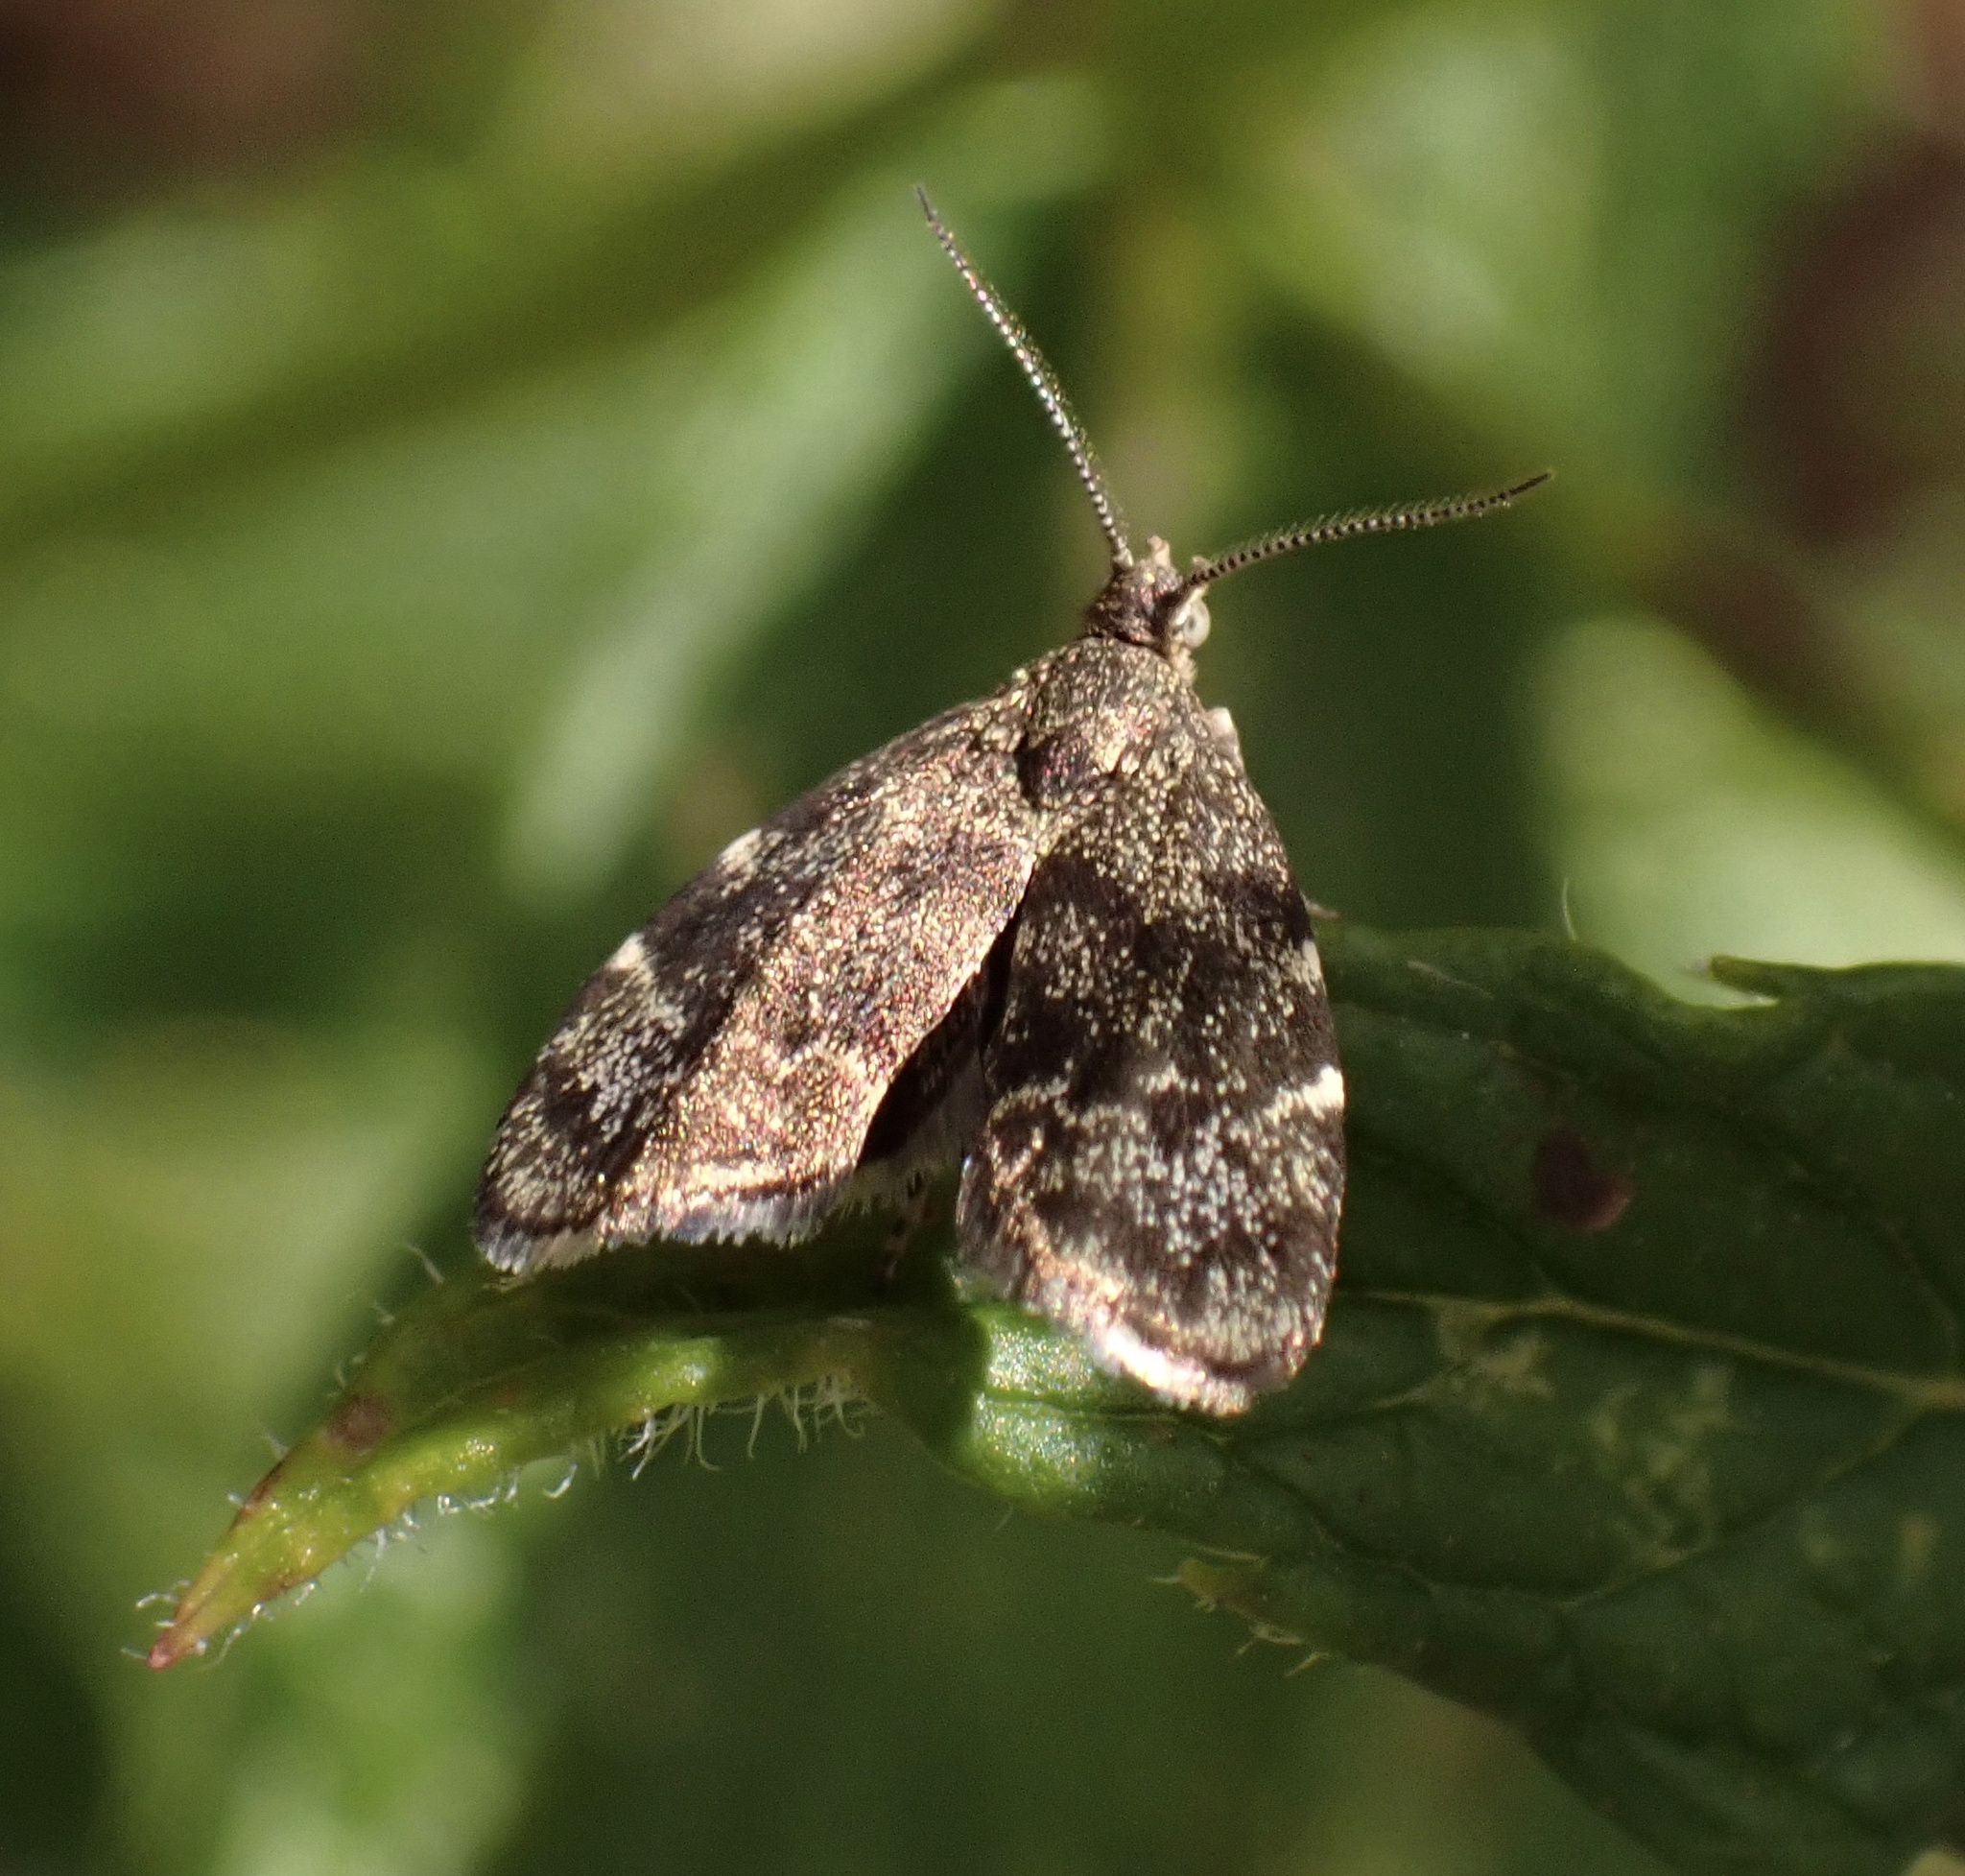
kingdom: Animalia
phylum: Arthropoda
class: Insecta
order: Lepidoptera
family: Choreutidae
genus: Anthophila
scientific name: Anthophila fabriciana
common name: Nettle-tap
